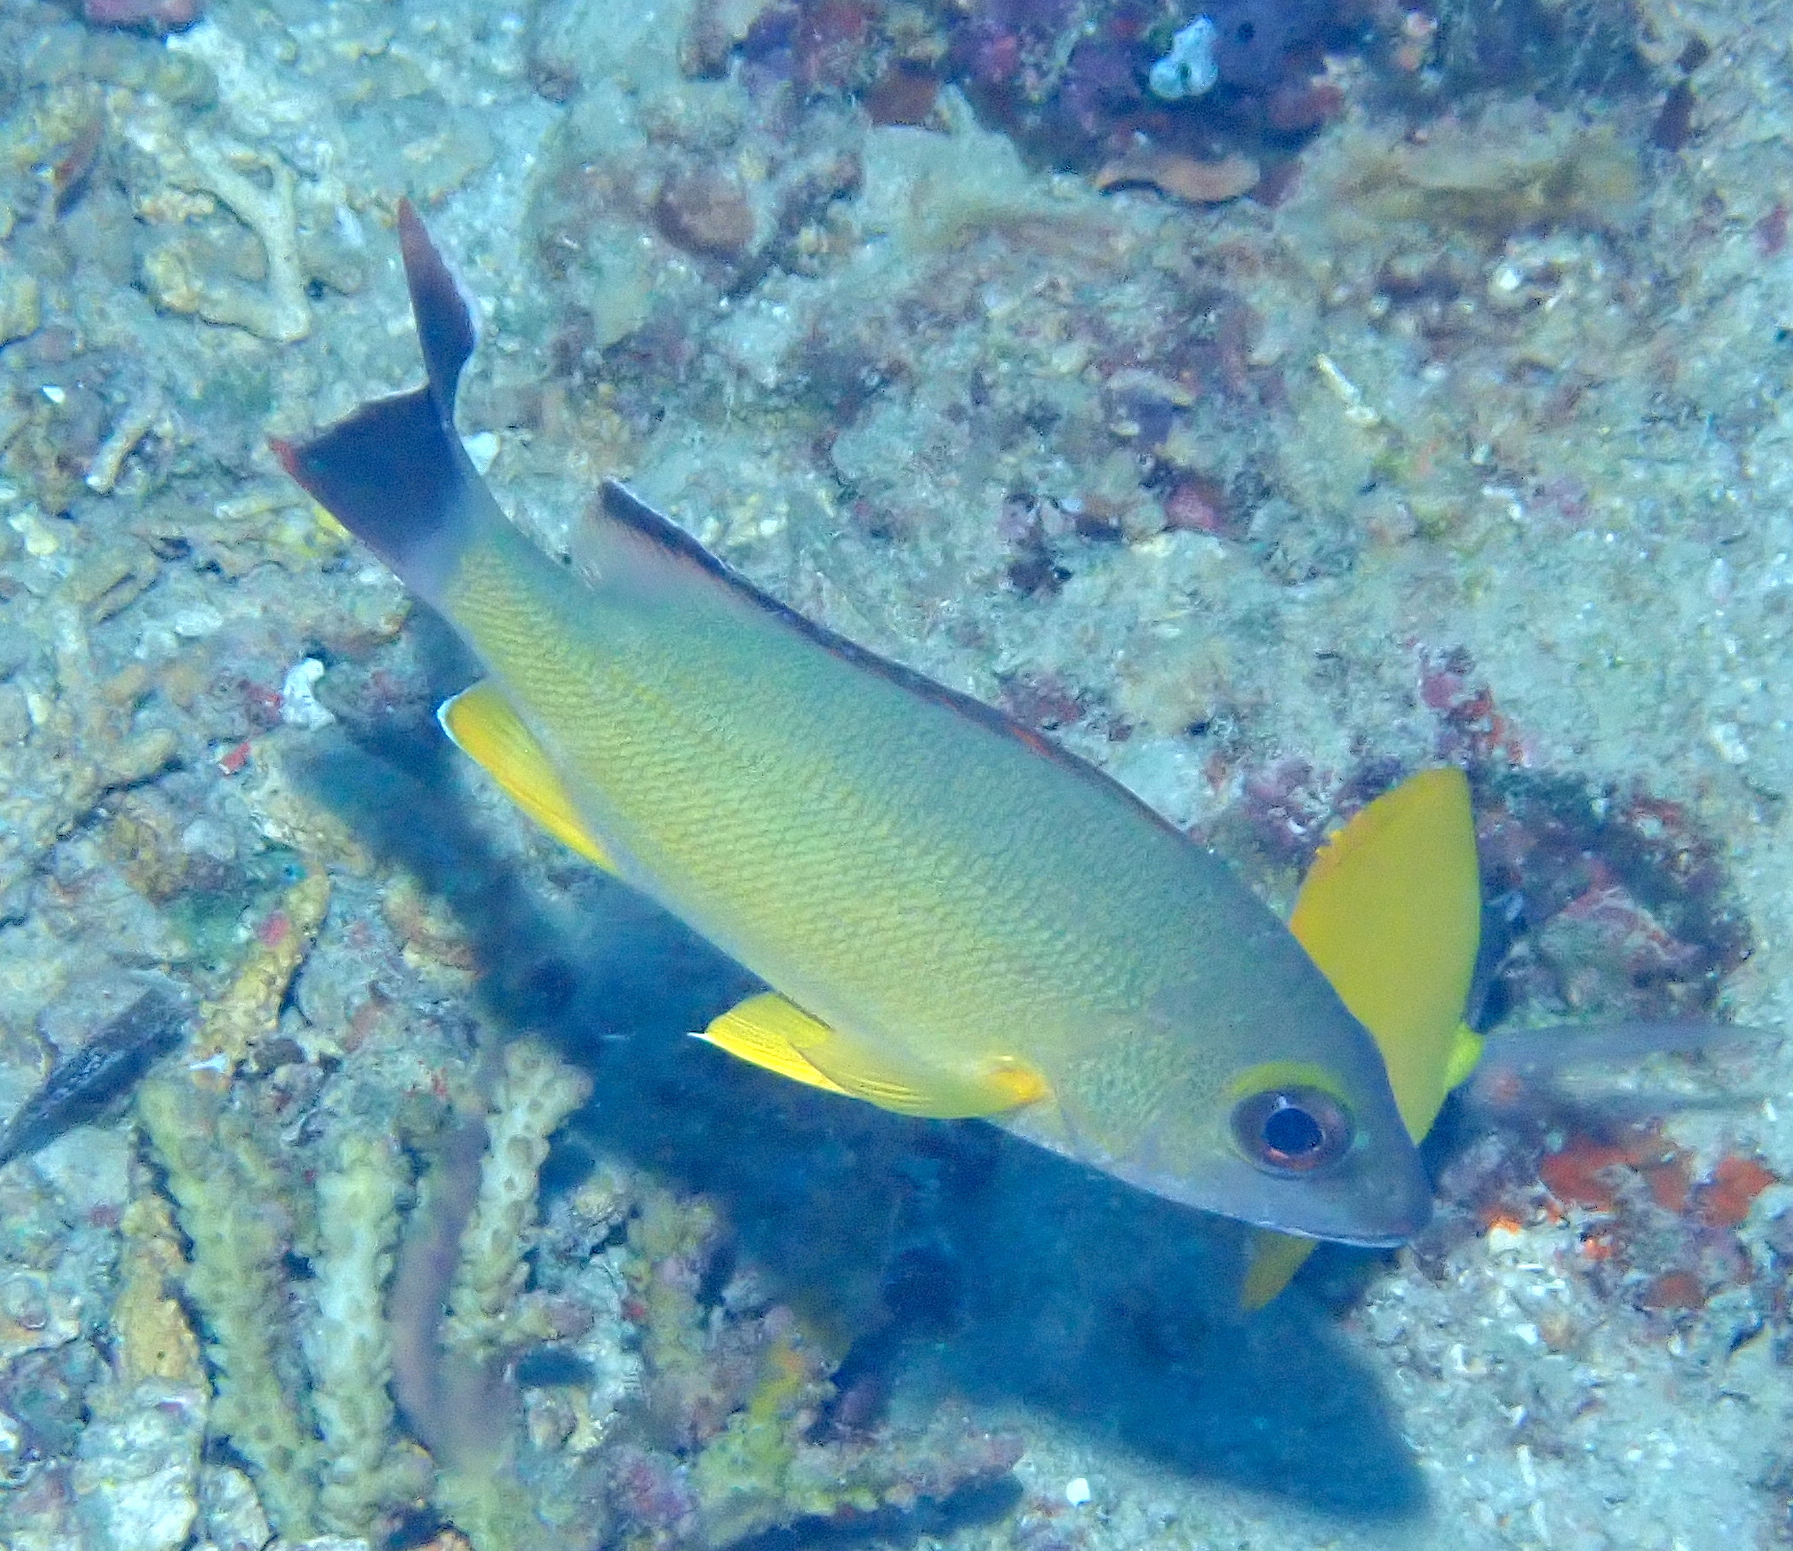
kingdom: Animalia
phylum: Chordata
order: Perciformes
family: Lutjanidae
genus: Lutjanus
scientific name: Lutjanus fulvus
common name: Blacktail snapper
